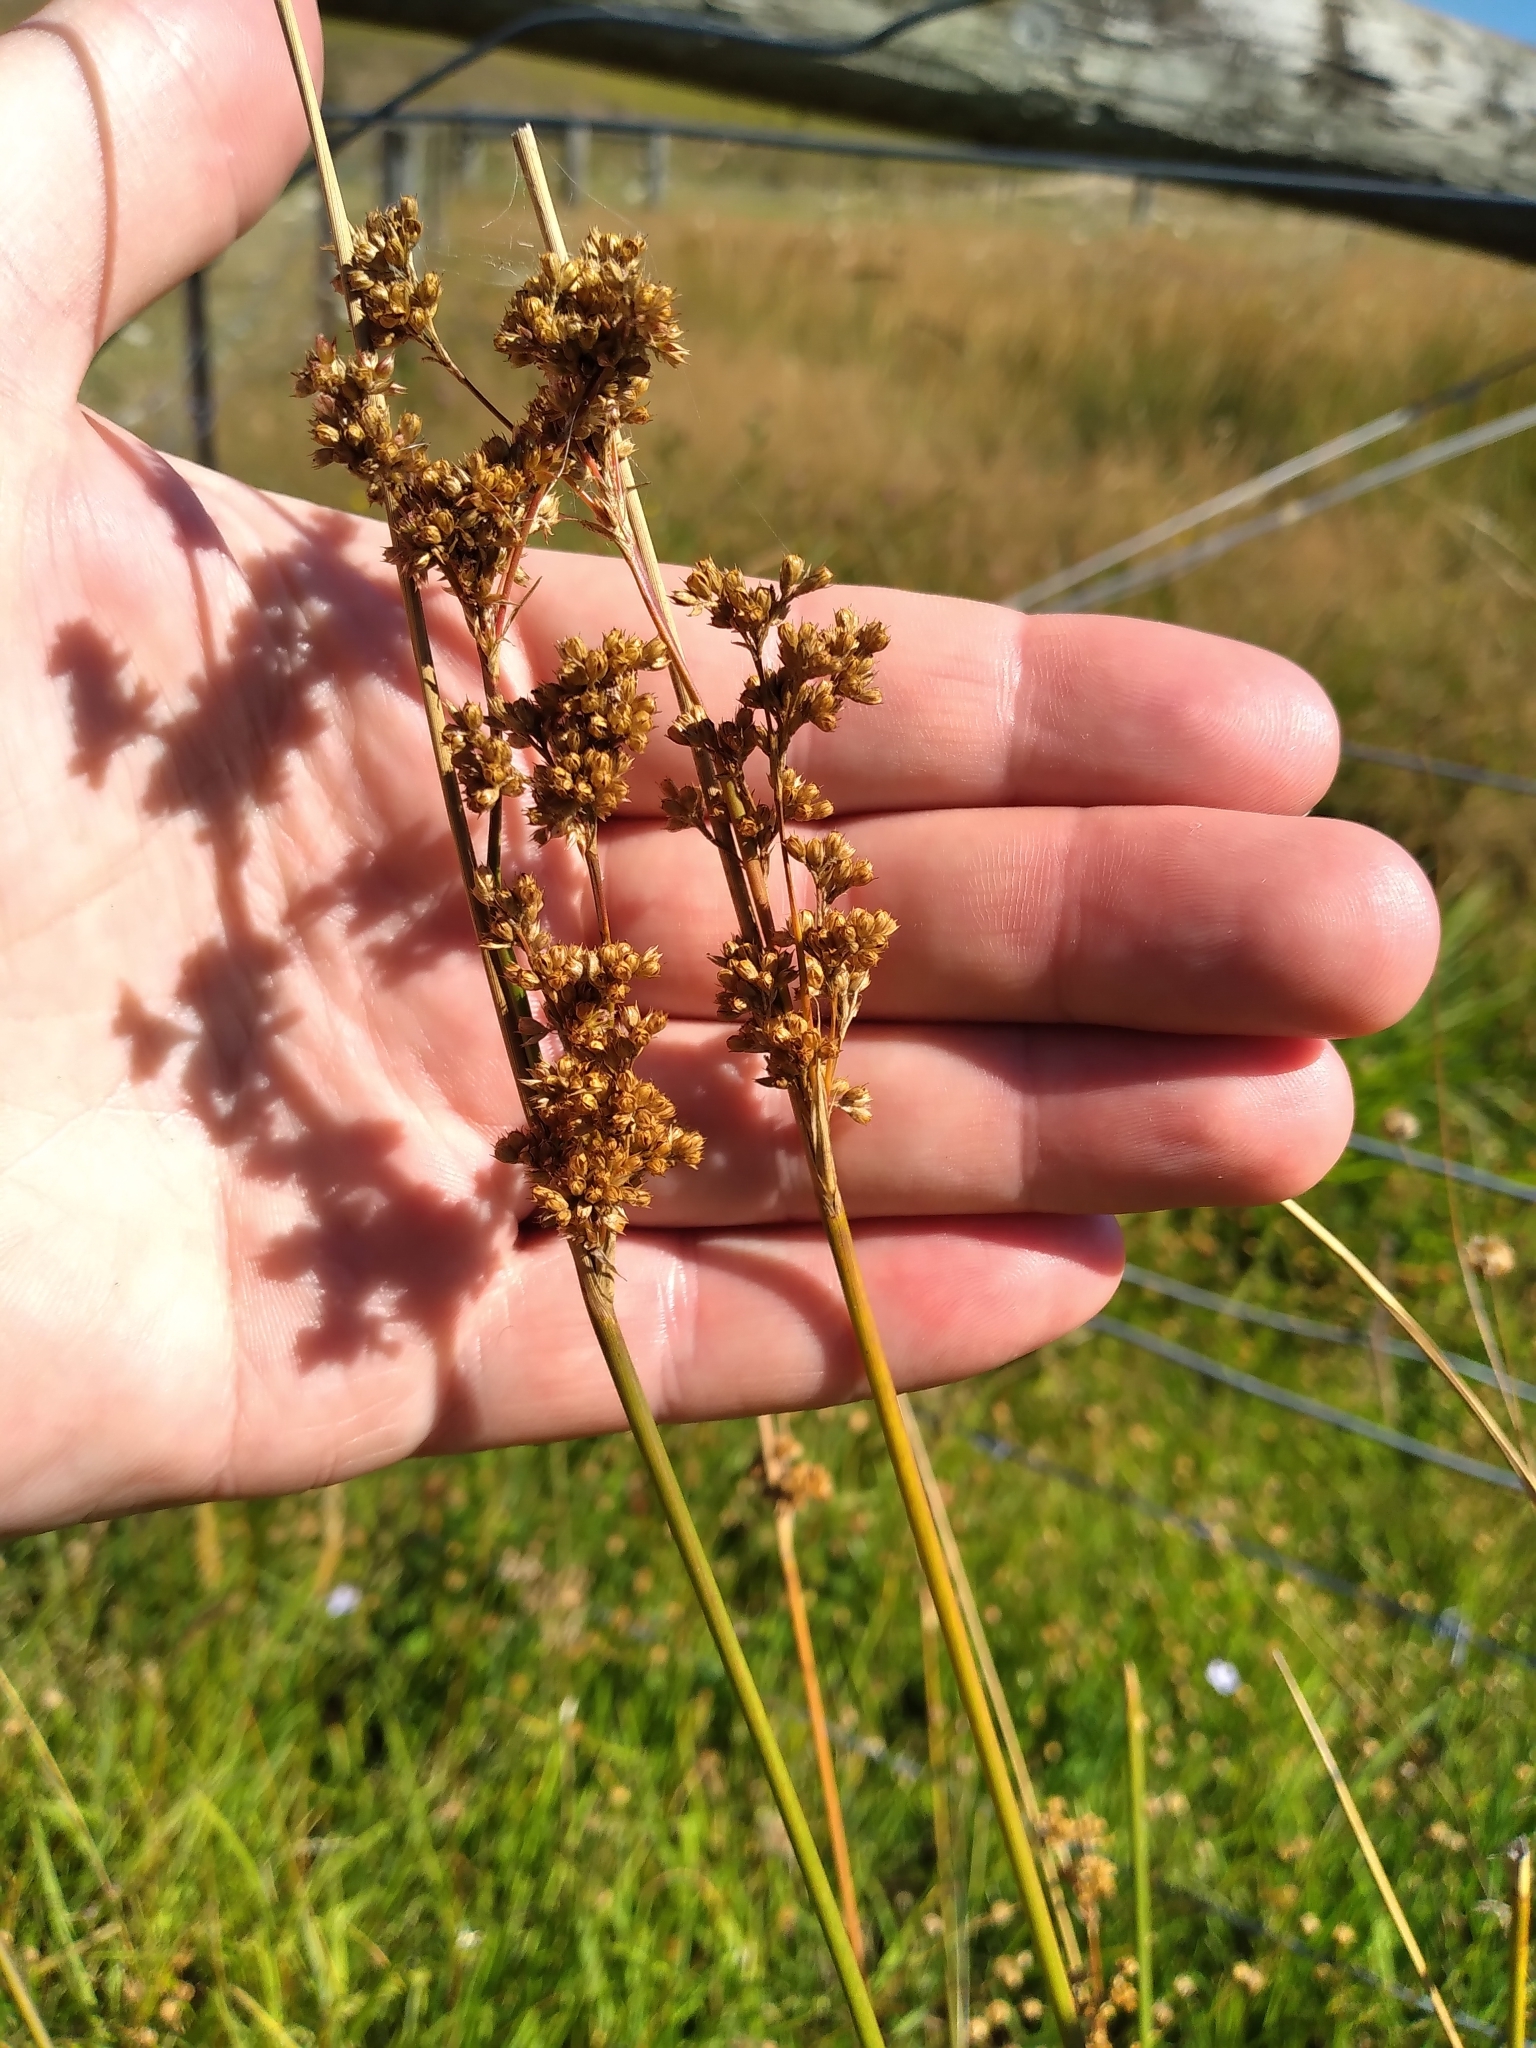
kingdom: Plantae
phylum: Tracheophyta
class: Liliopsida
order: Poales
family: Juncaceae
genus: Juncus
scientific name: Juncus australis
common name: Austral rush
